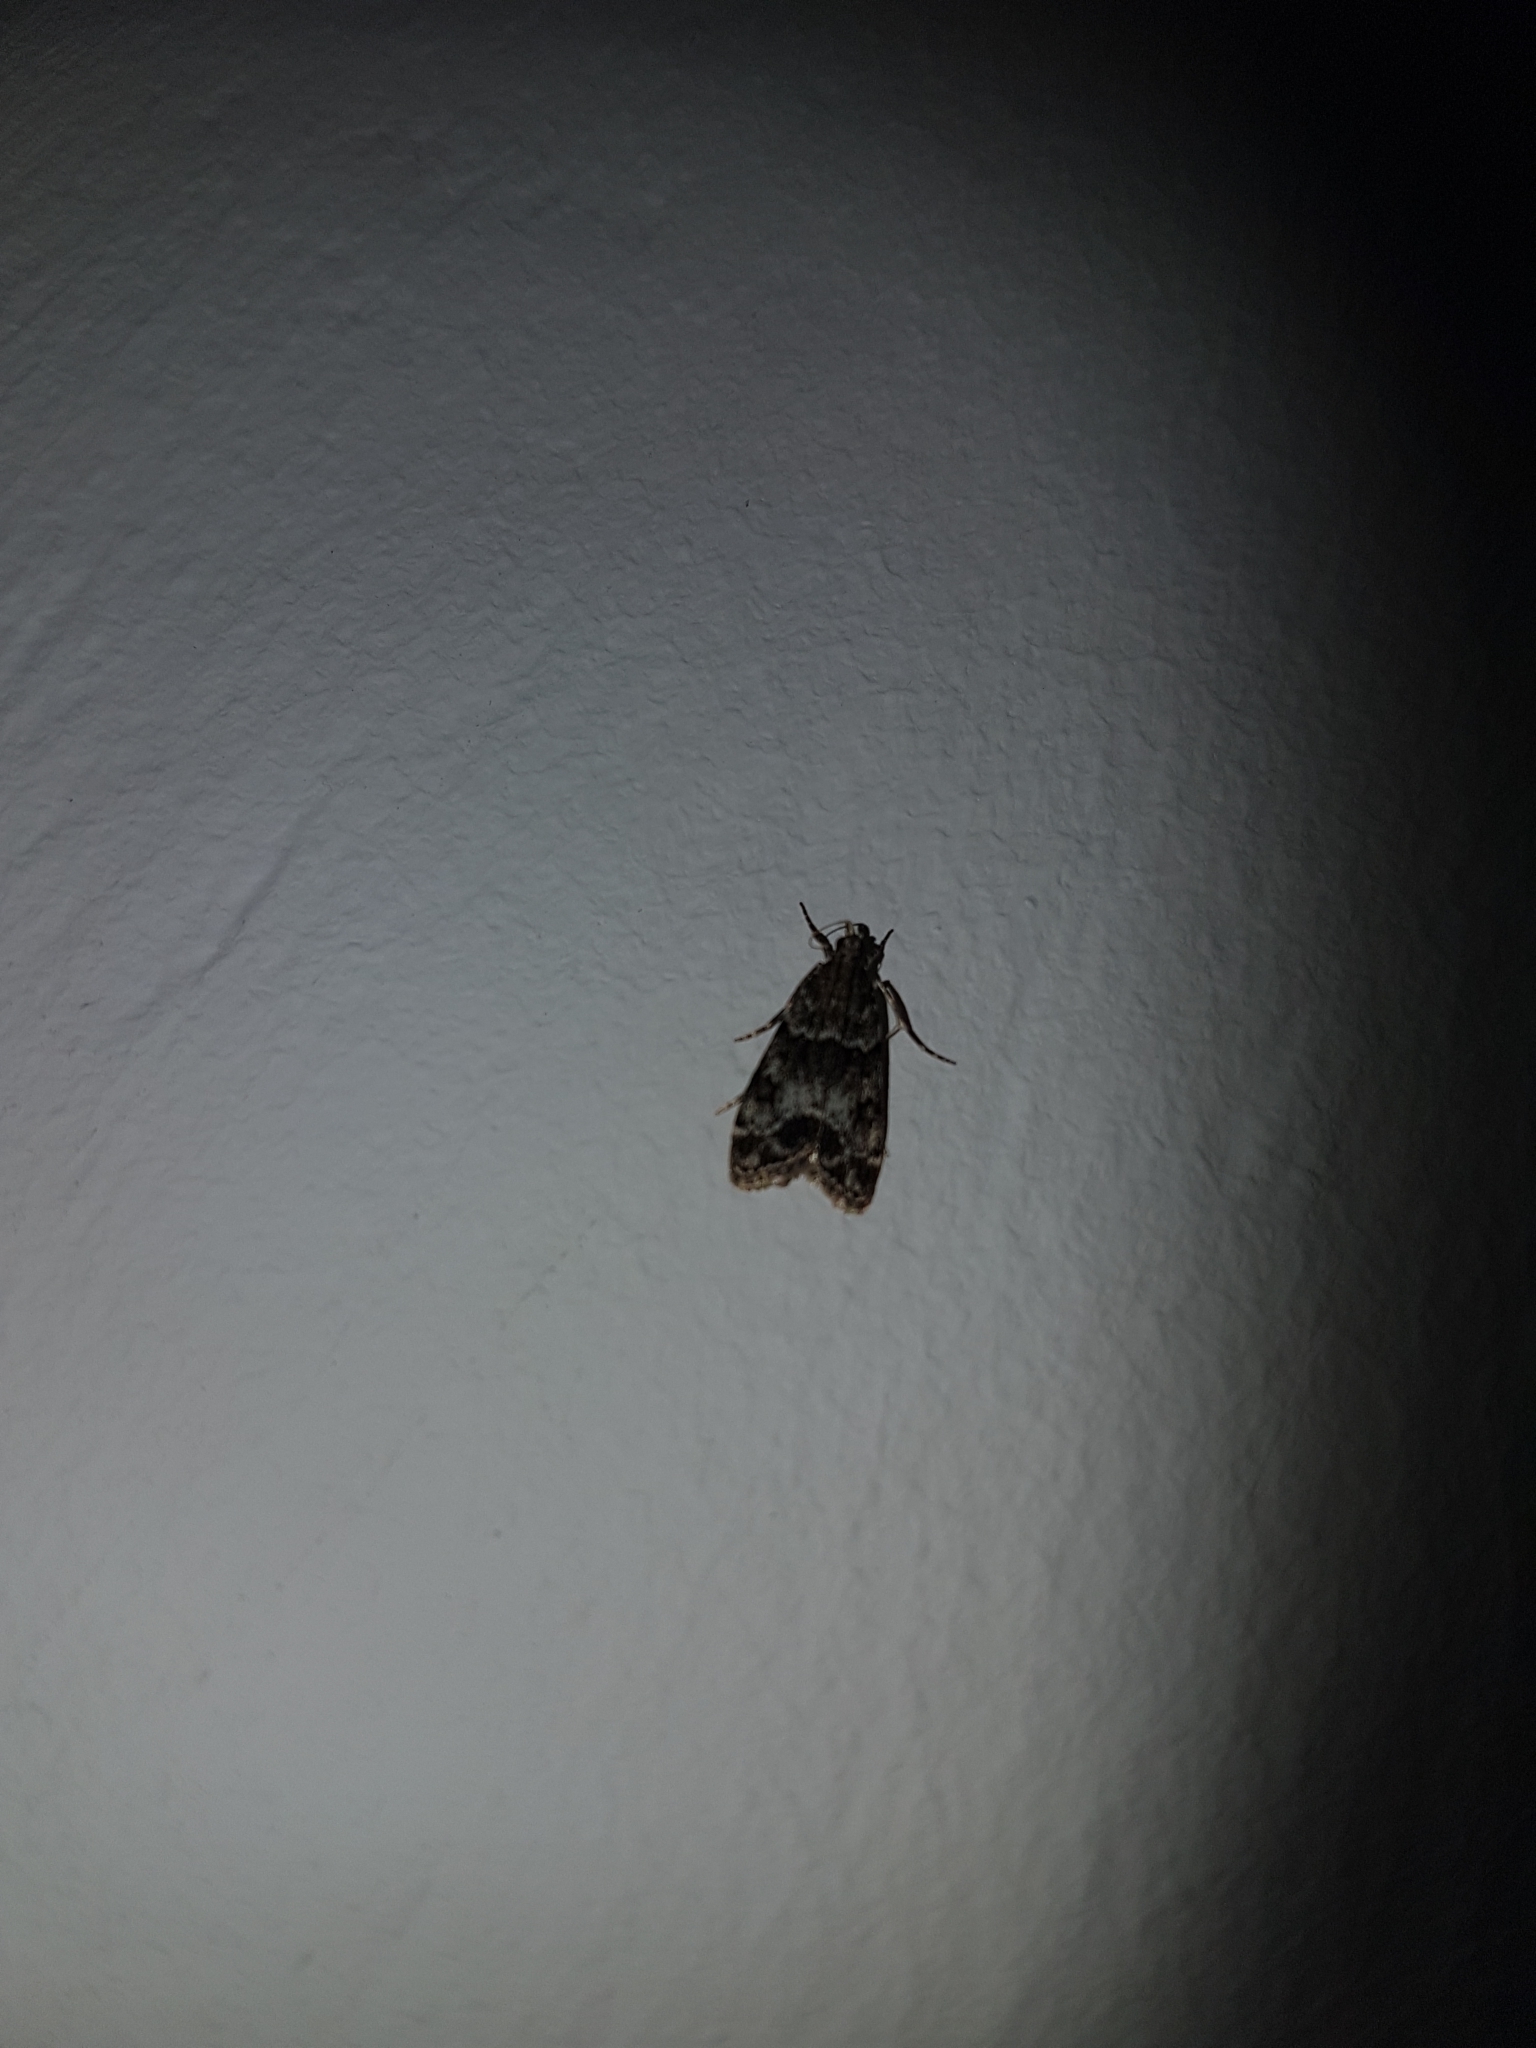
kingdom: Animalia
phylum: Arthropoda
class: Insecta
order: Lepidoptera
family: Crambidae
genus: Eudonia
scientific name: Eudonia mercurella
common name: Small grey
